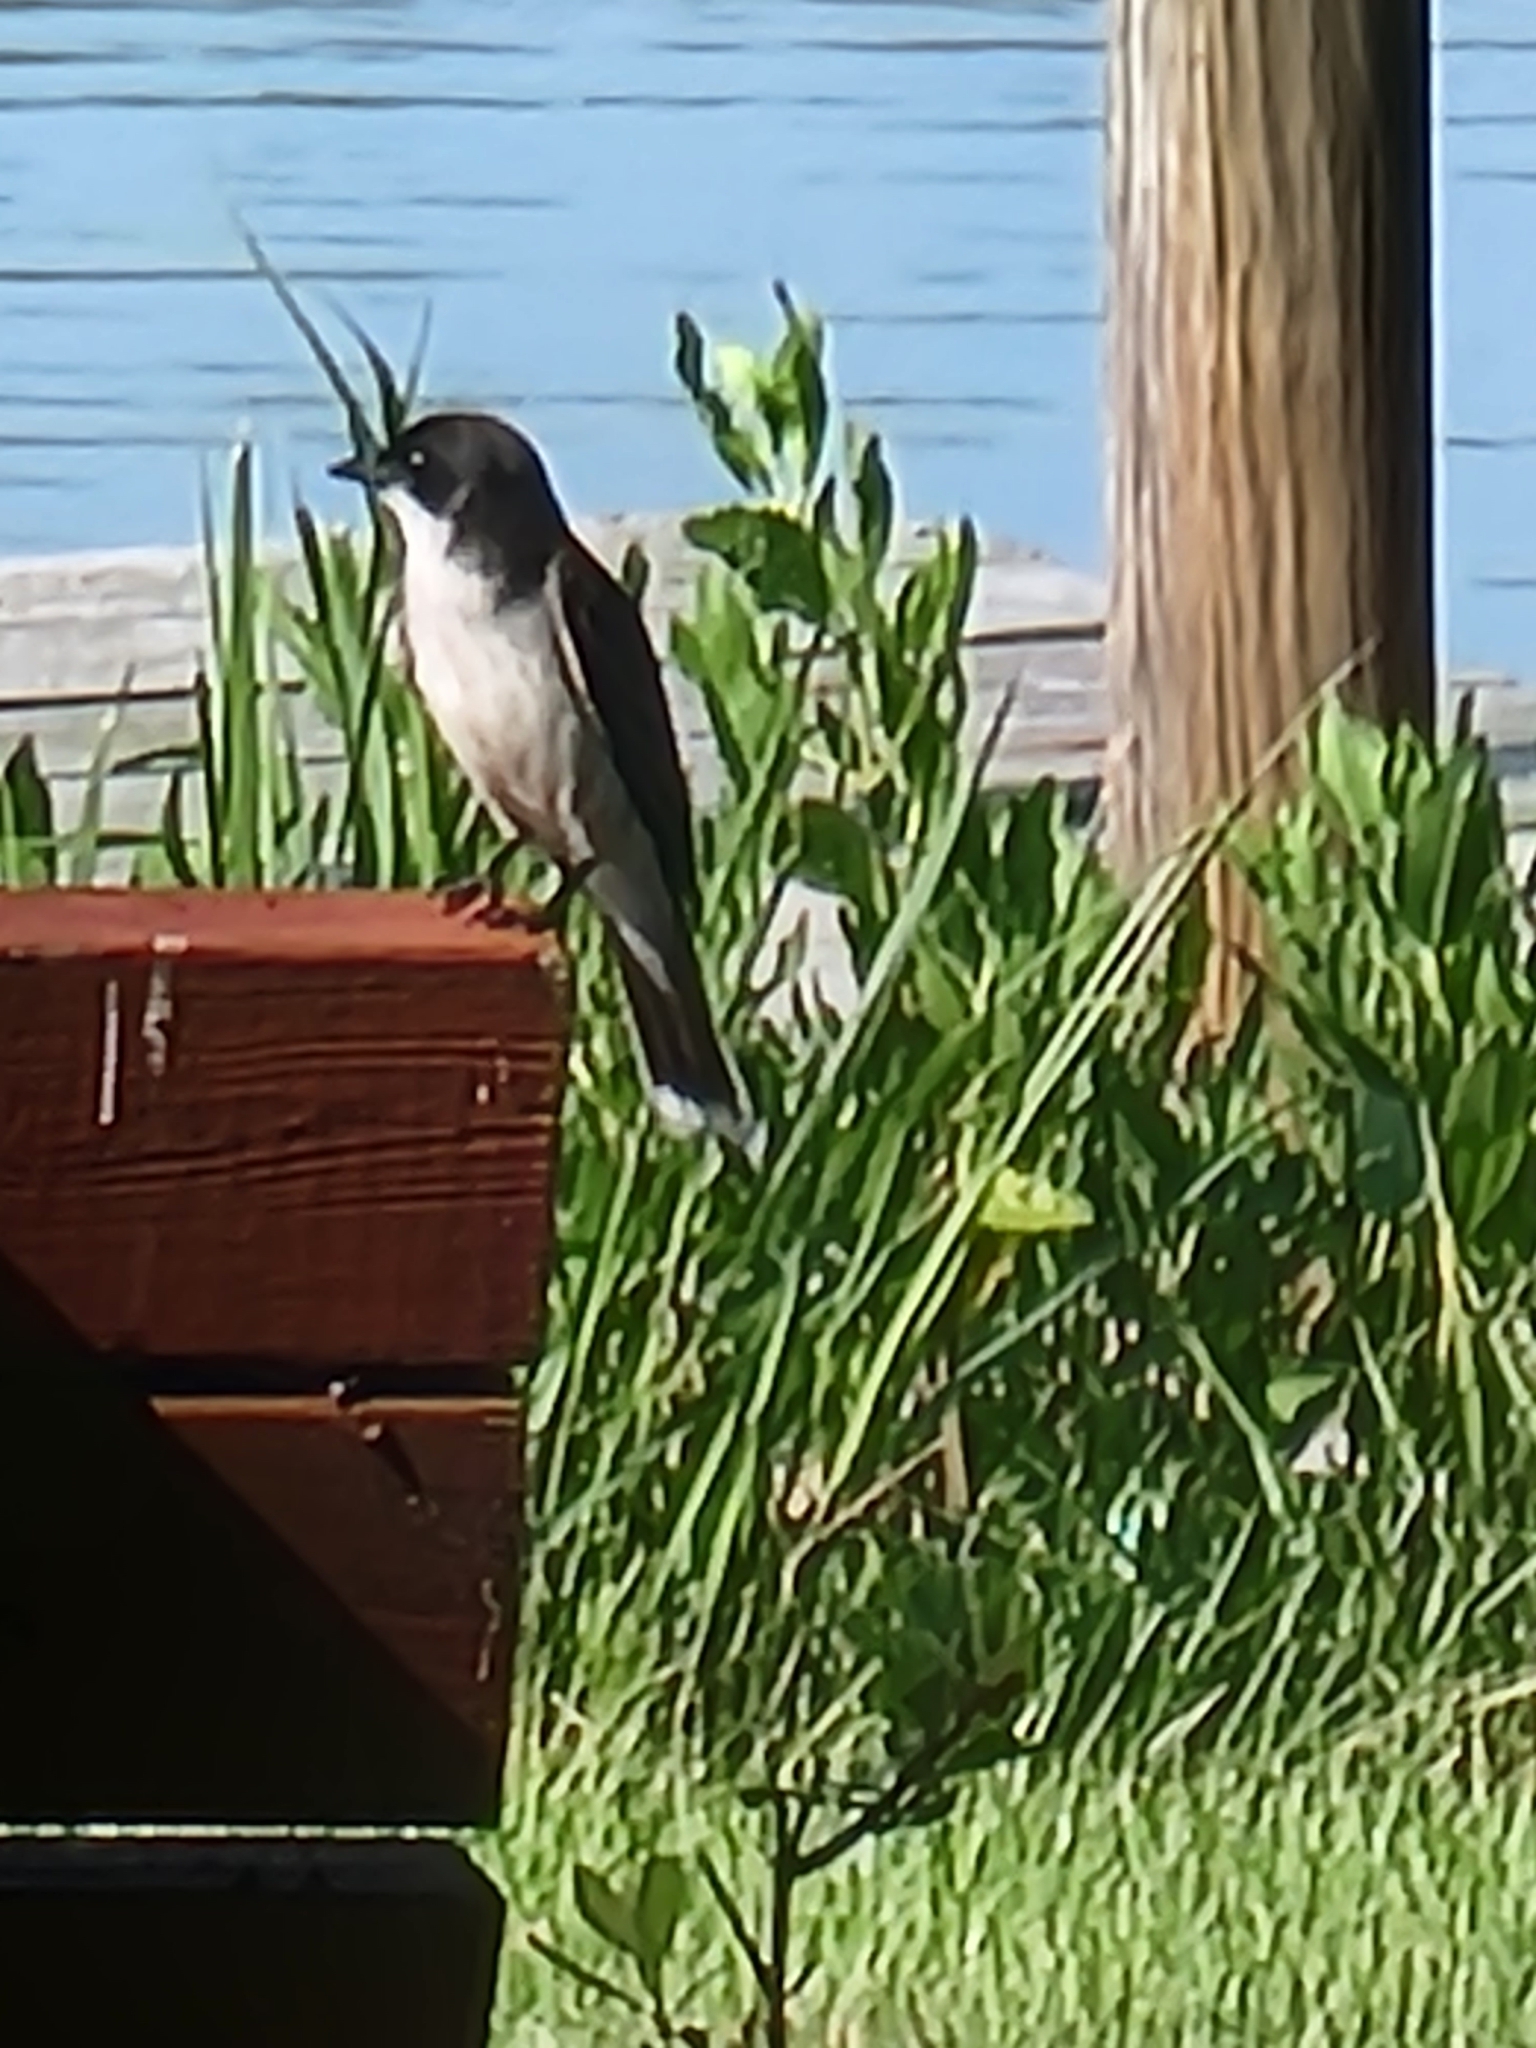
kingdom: Animalia
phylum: Chordata
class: Aves
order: Passeriformes
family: Tyrannidae
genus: Tyrannus
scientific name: Tyrannus tyrannus
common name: Eastern kingbird
